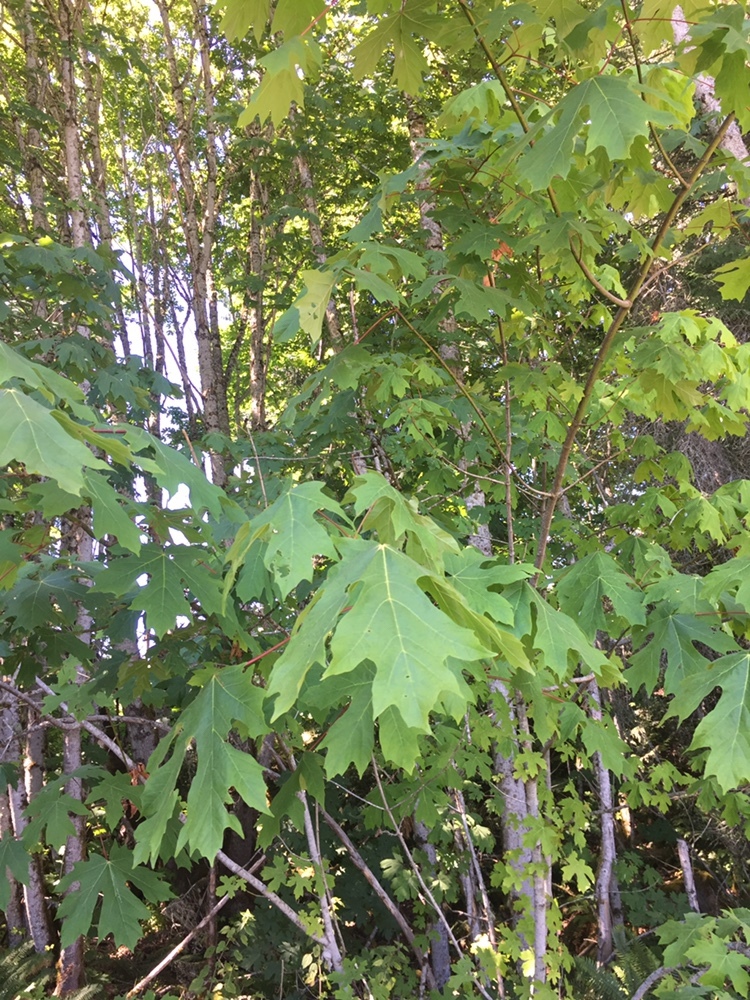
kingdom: Plantae
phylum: Tracheophyta
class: Magnoliopsida
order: Sapindales
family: Sapindaceae
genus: Acer
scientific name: Acer macrophyllum
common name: Oregon maple
